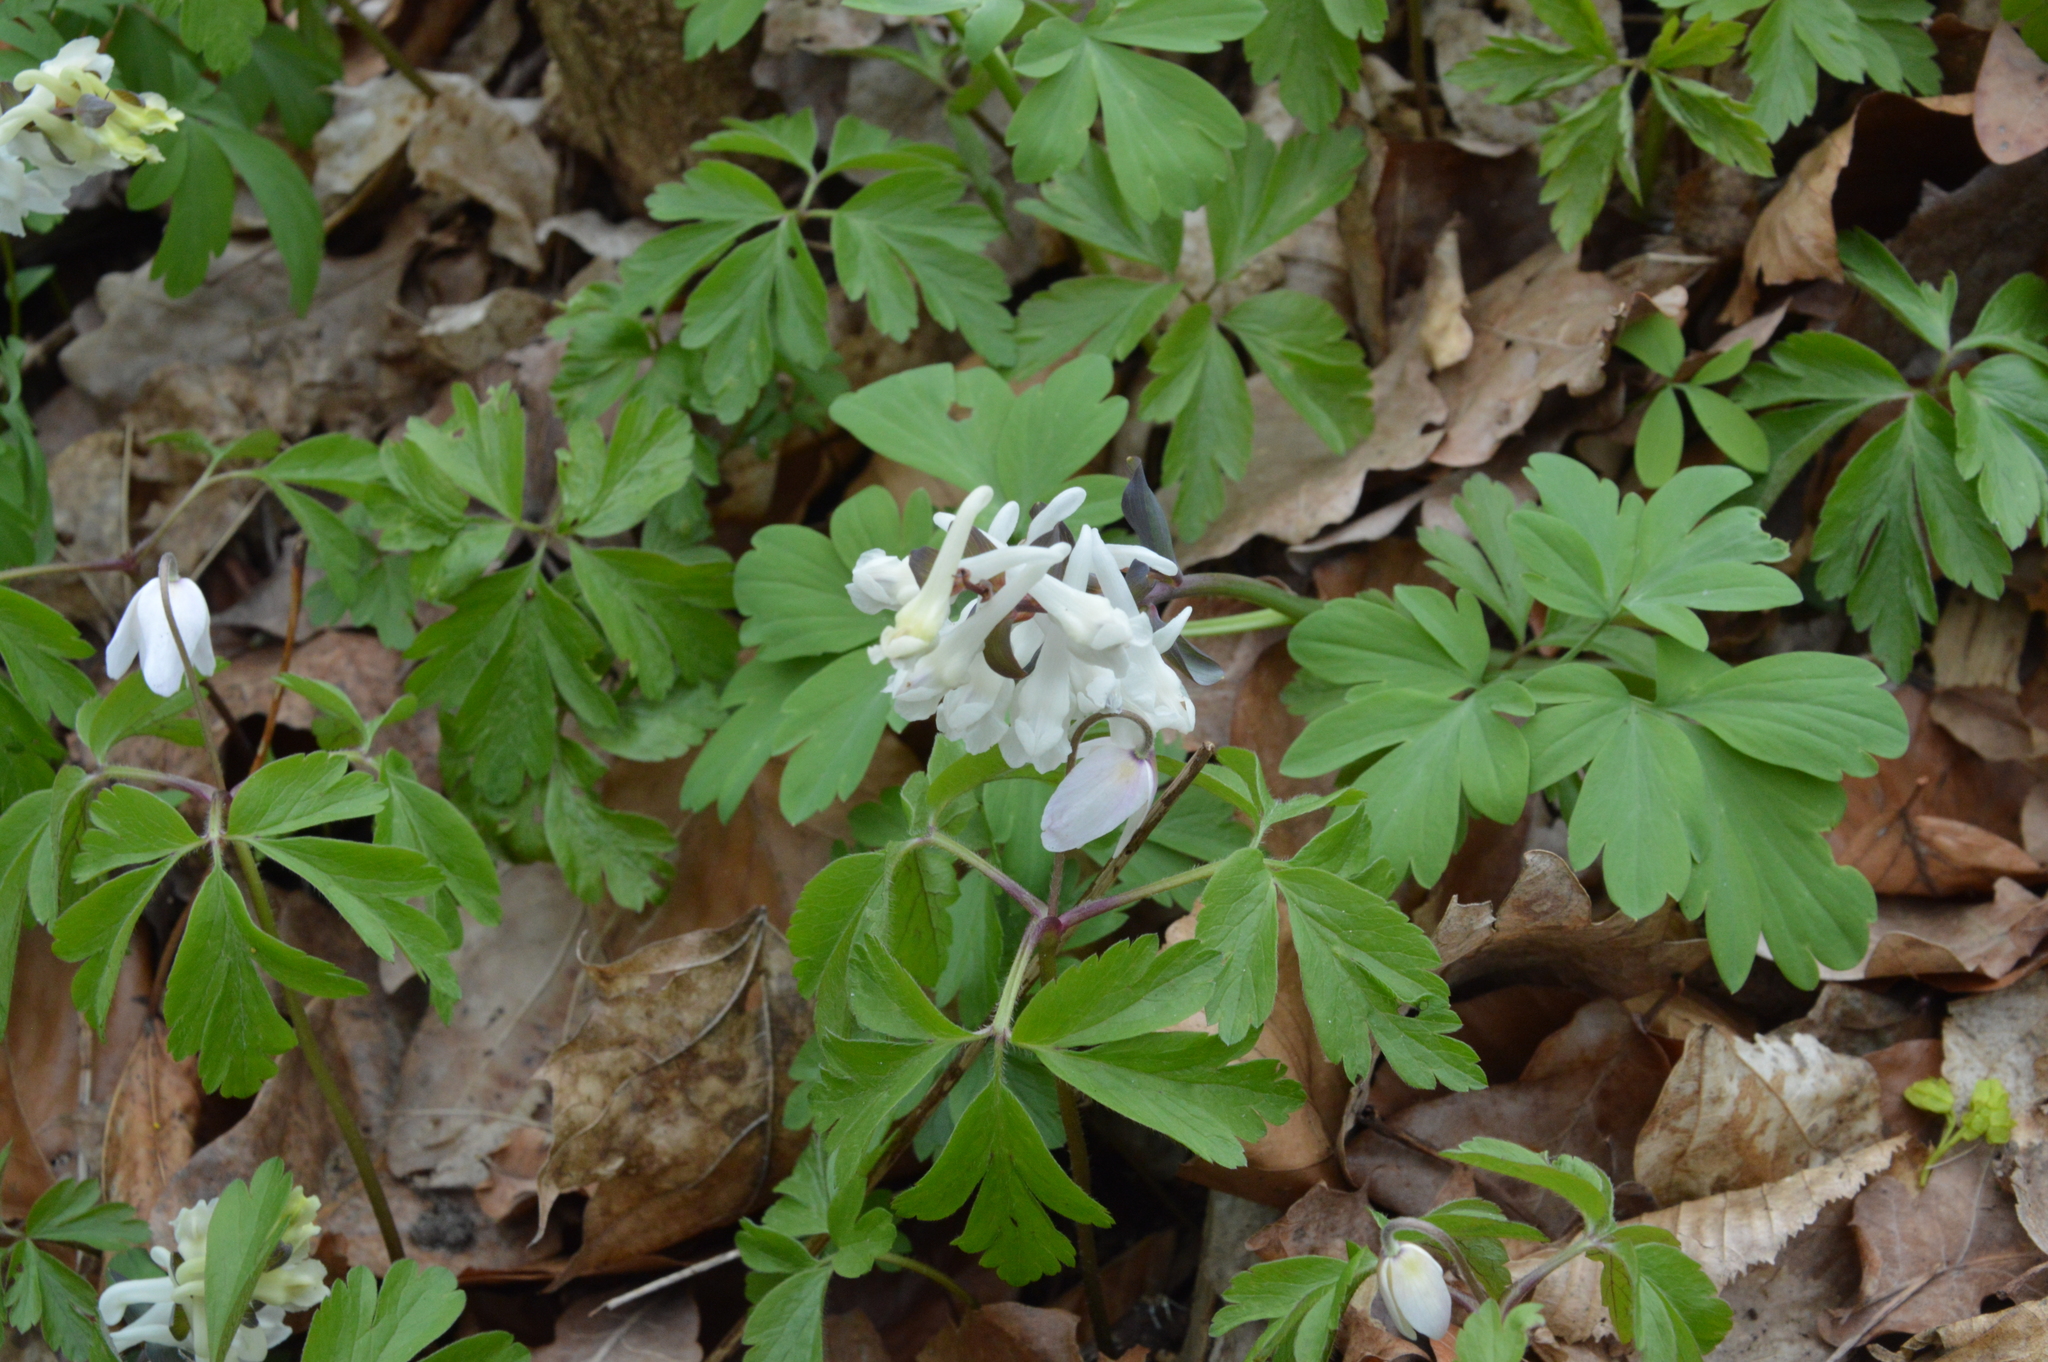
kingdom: Plantae
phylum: Tracheophyta
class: Magnoliopsida
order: Ranunculales
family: Papaveraceae
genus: Corydalis
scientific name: Corydalis cava
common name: Hollowroot
